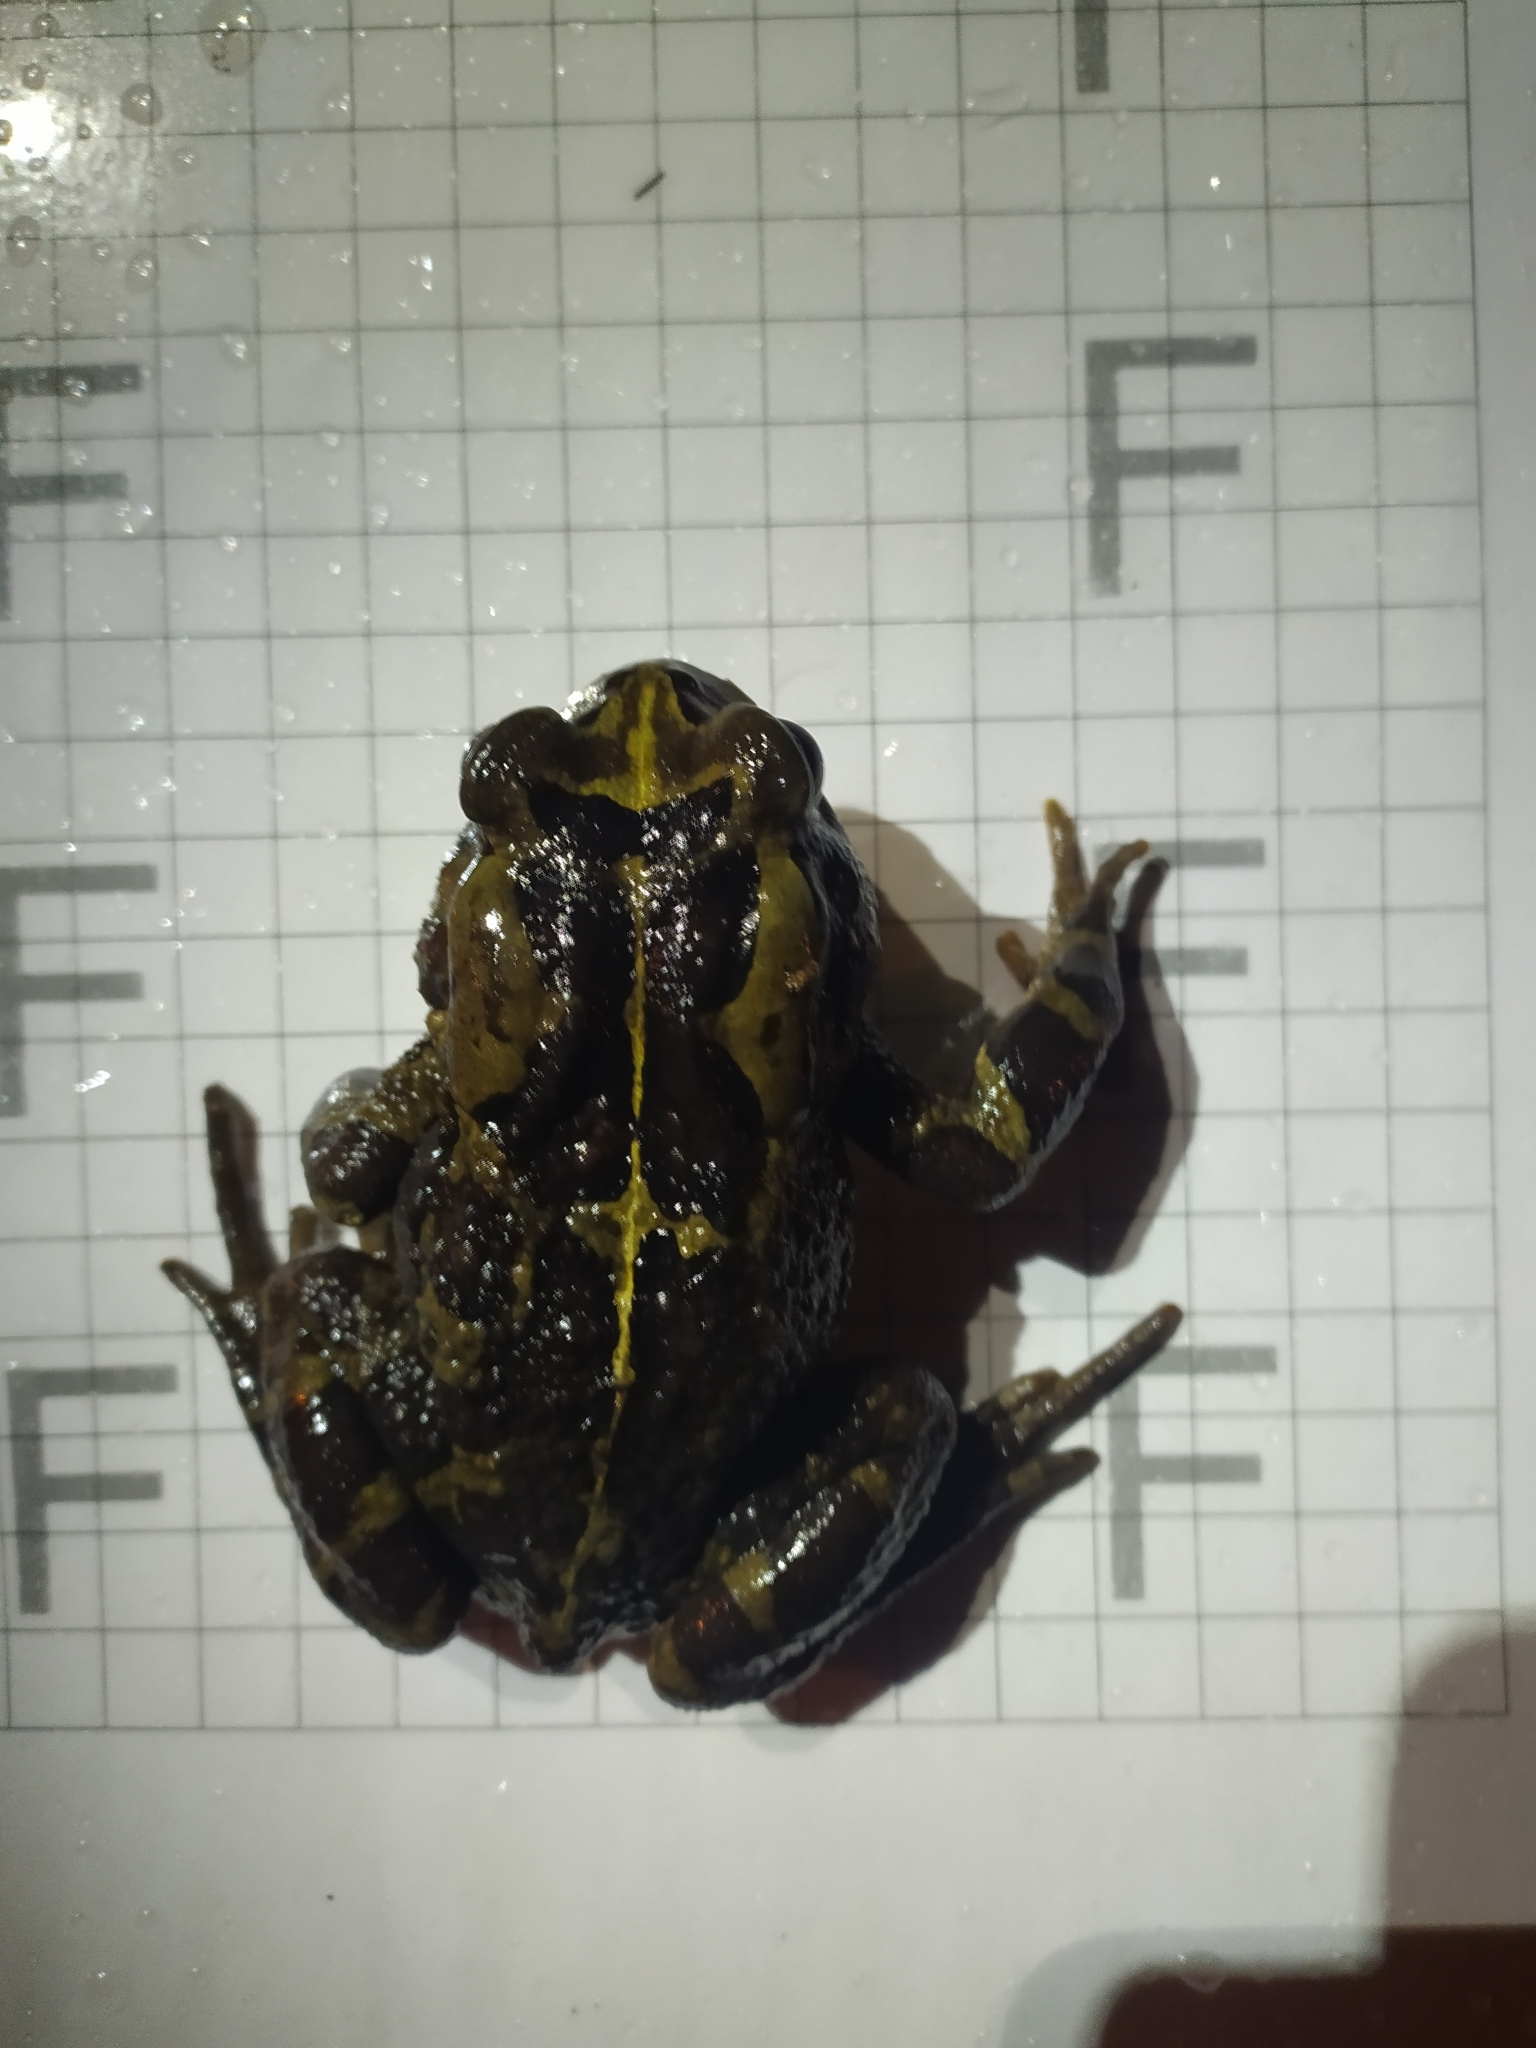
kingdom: Animalia
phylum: Chordata
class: Amphibia
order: Anura
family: Bufonidae
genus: Sclerophrys
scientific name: Sclerophrys pantherina
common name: Panther toad
